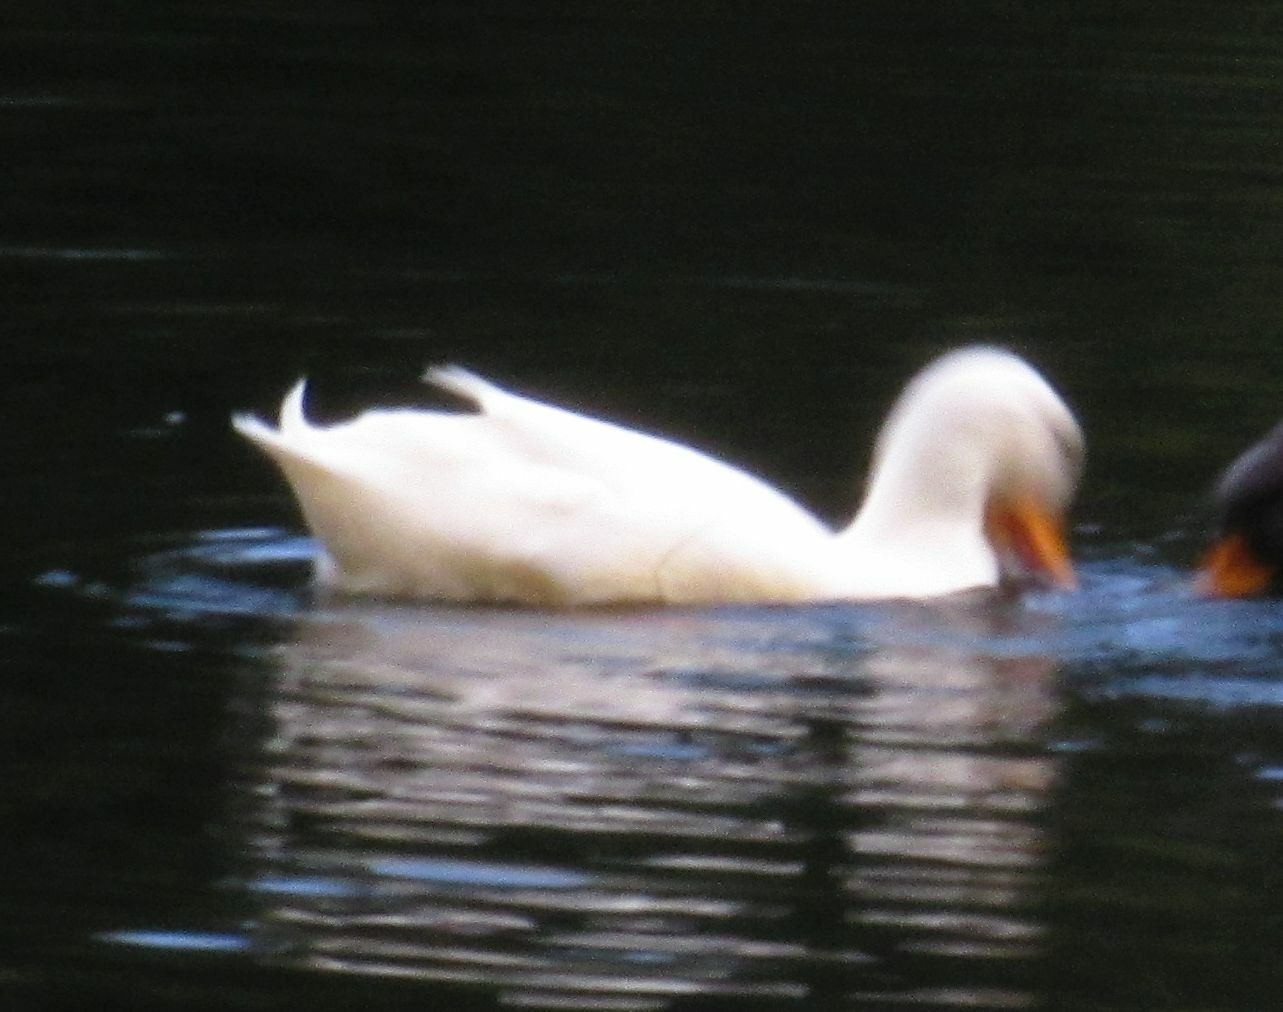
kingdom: Animalia
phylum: Chordata
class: Aves
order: Anseriformes
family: Anatidae
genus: Anas
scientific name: Anas platyrhynchos
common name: Mallard
